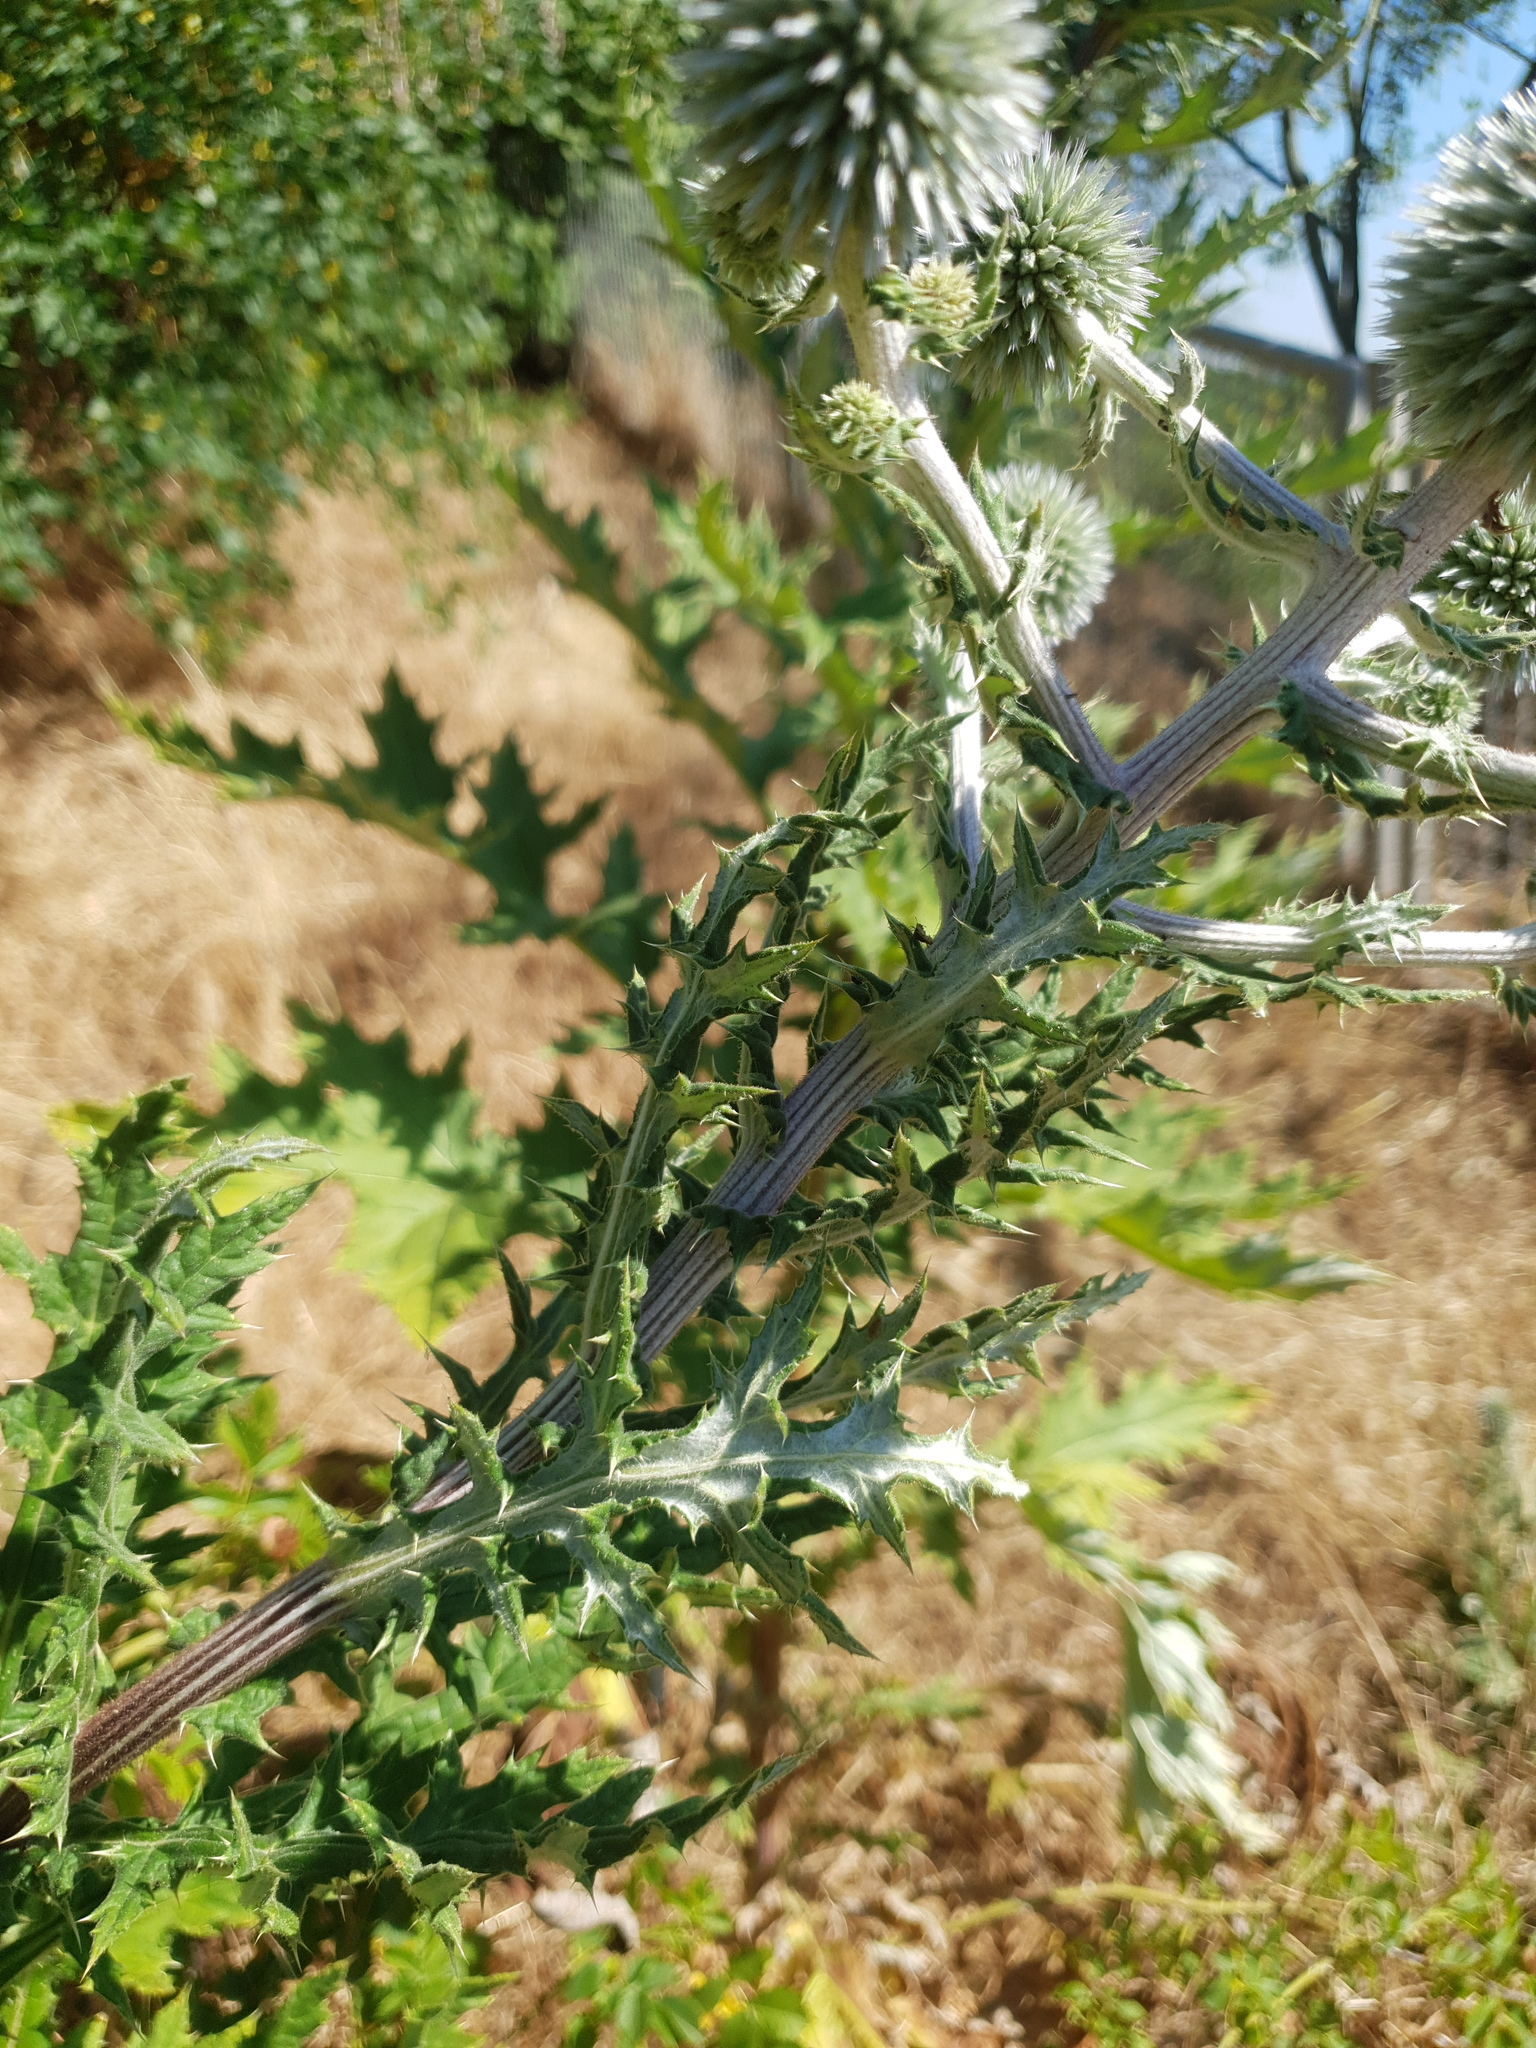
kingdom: Plantae
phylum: Tracheophyta
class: Magnoliopsida
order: Asterales
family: Asteraceae
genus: Echinops
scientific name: Echinops sphaerocephalus
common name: Glandular globe-thistle
